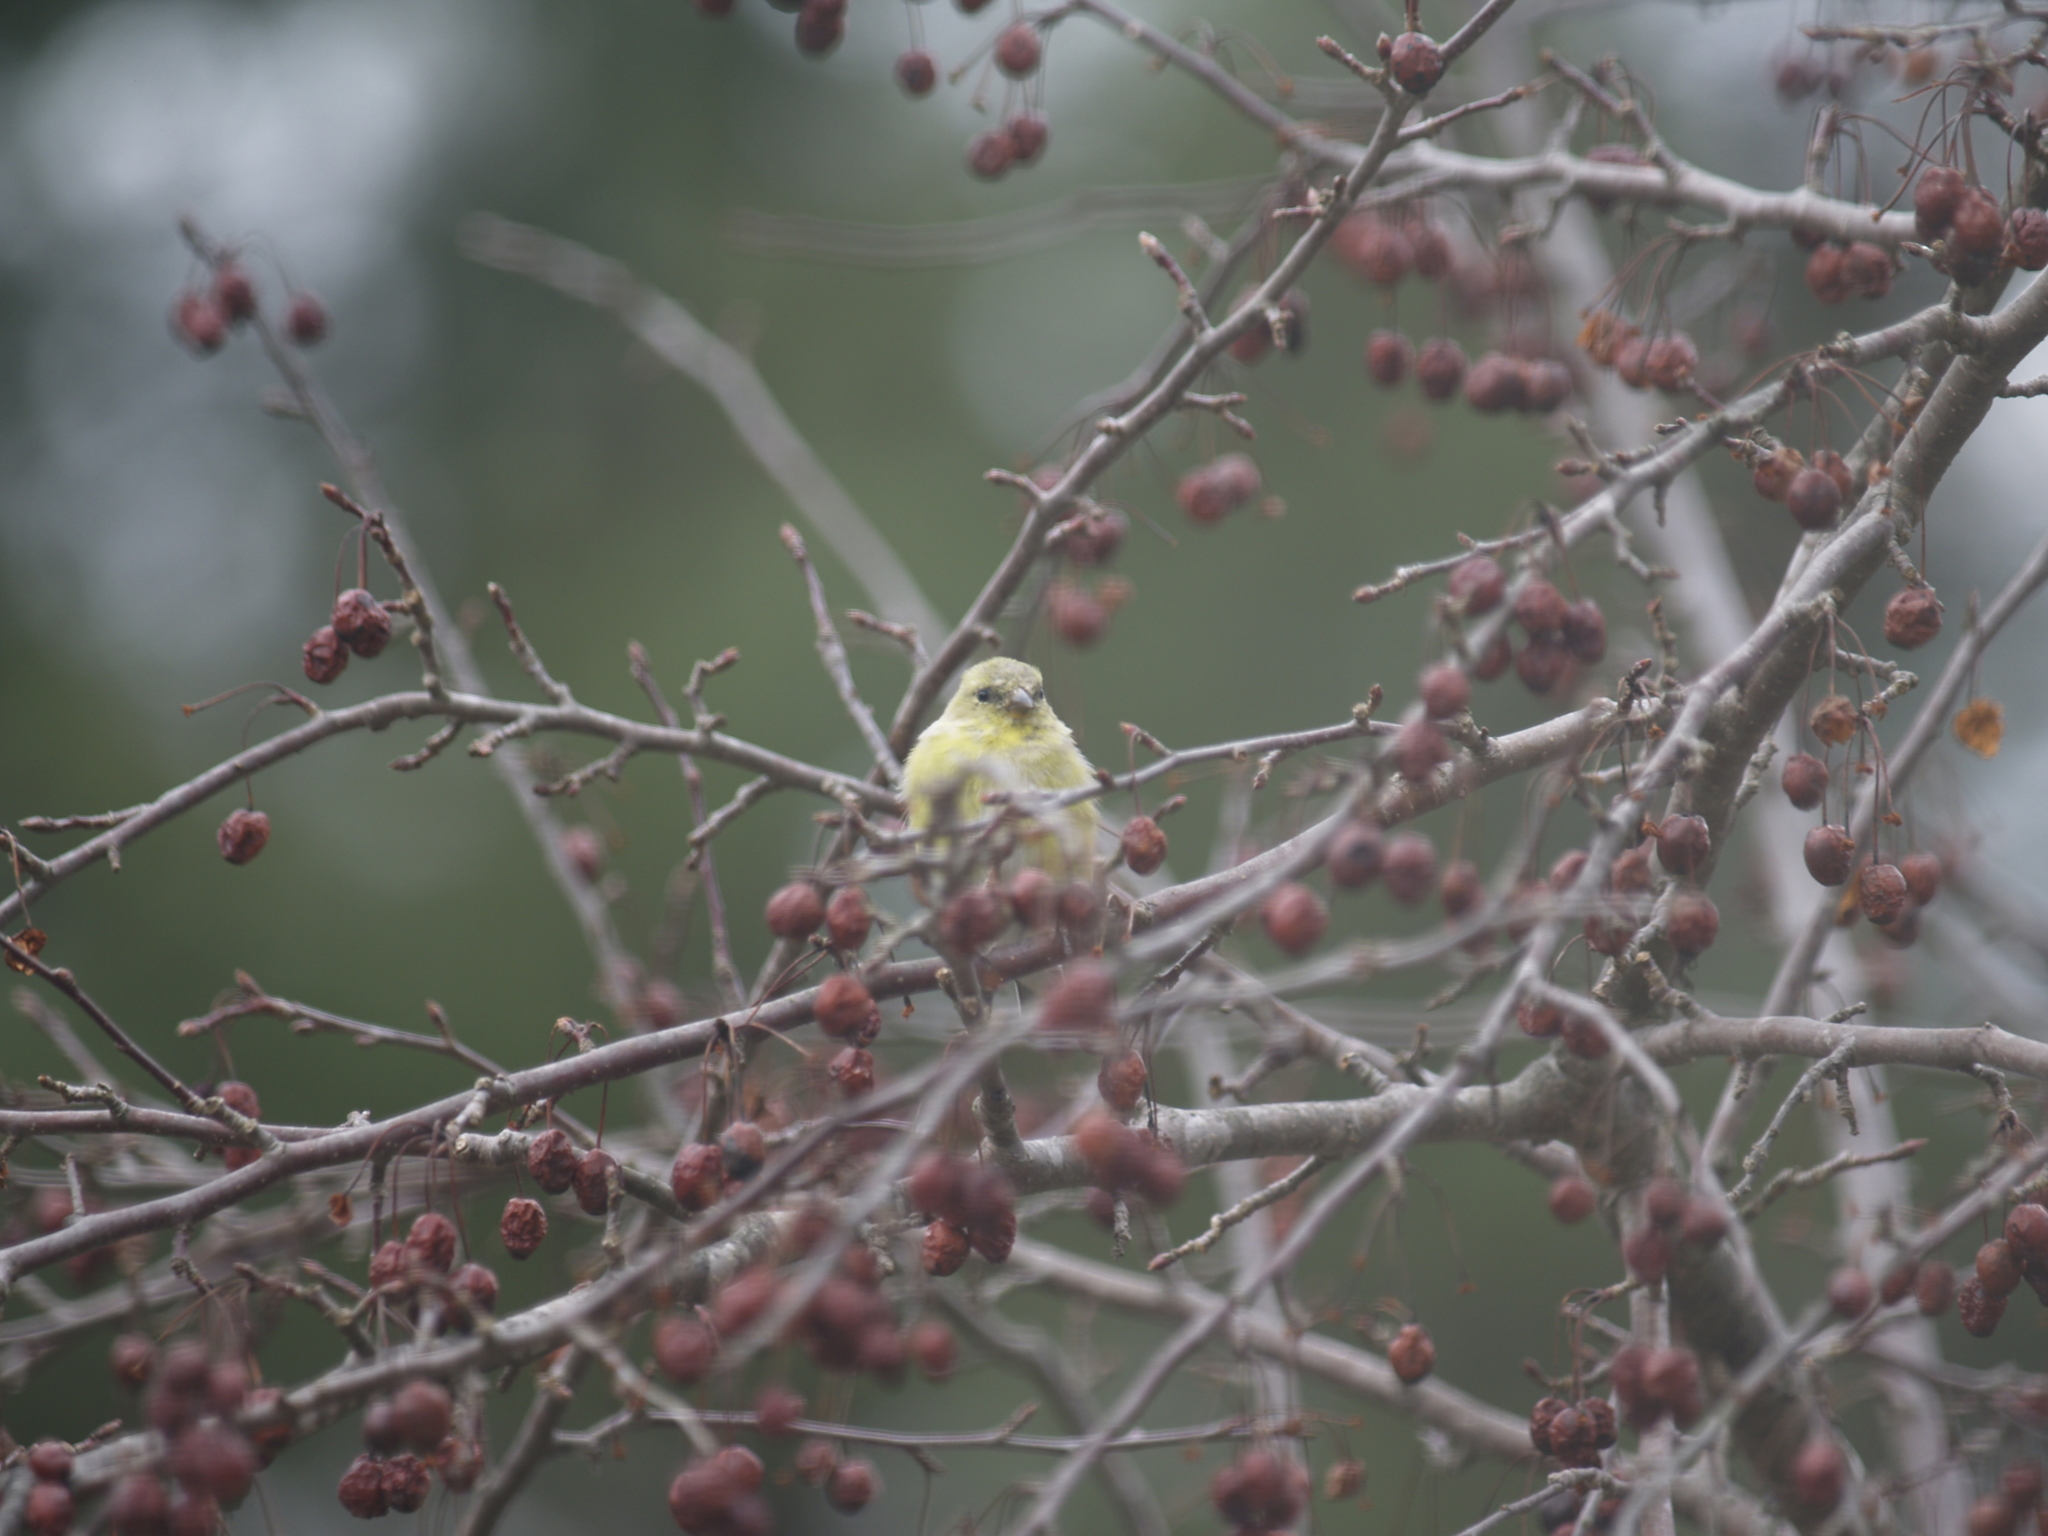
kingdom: Animalia
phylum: Chordata
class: Aves
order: Passeriformes
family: Fringillidae
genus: Spinus
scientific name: Spinus tristis
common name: American goldfinch
